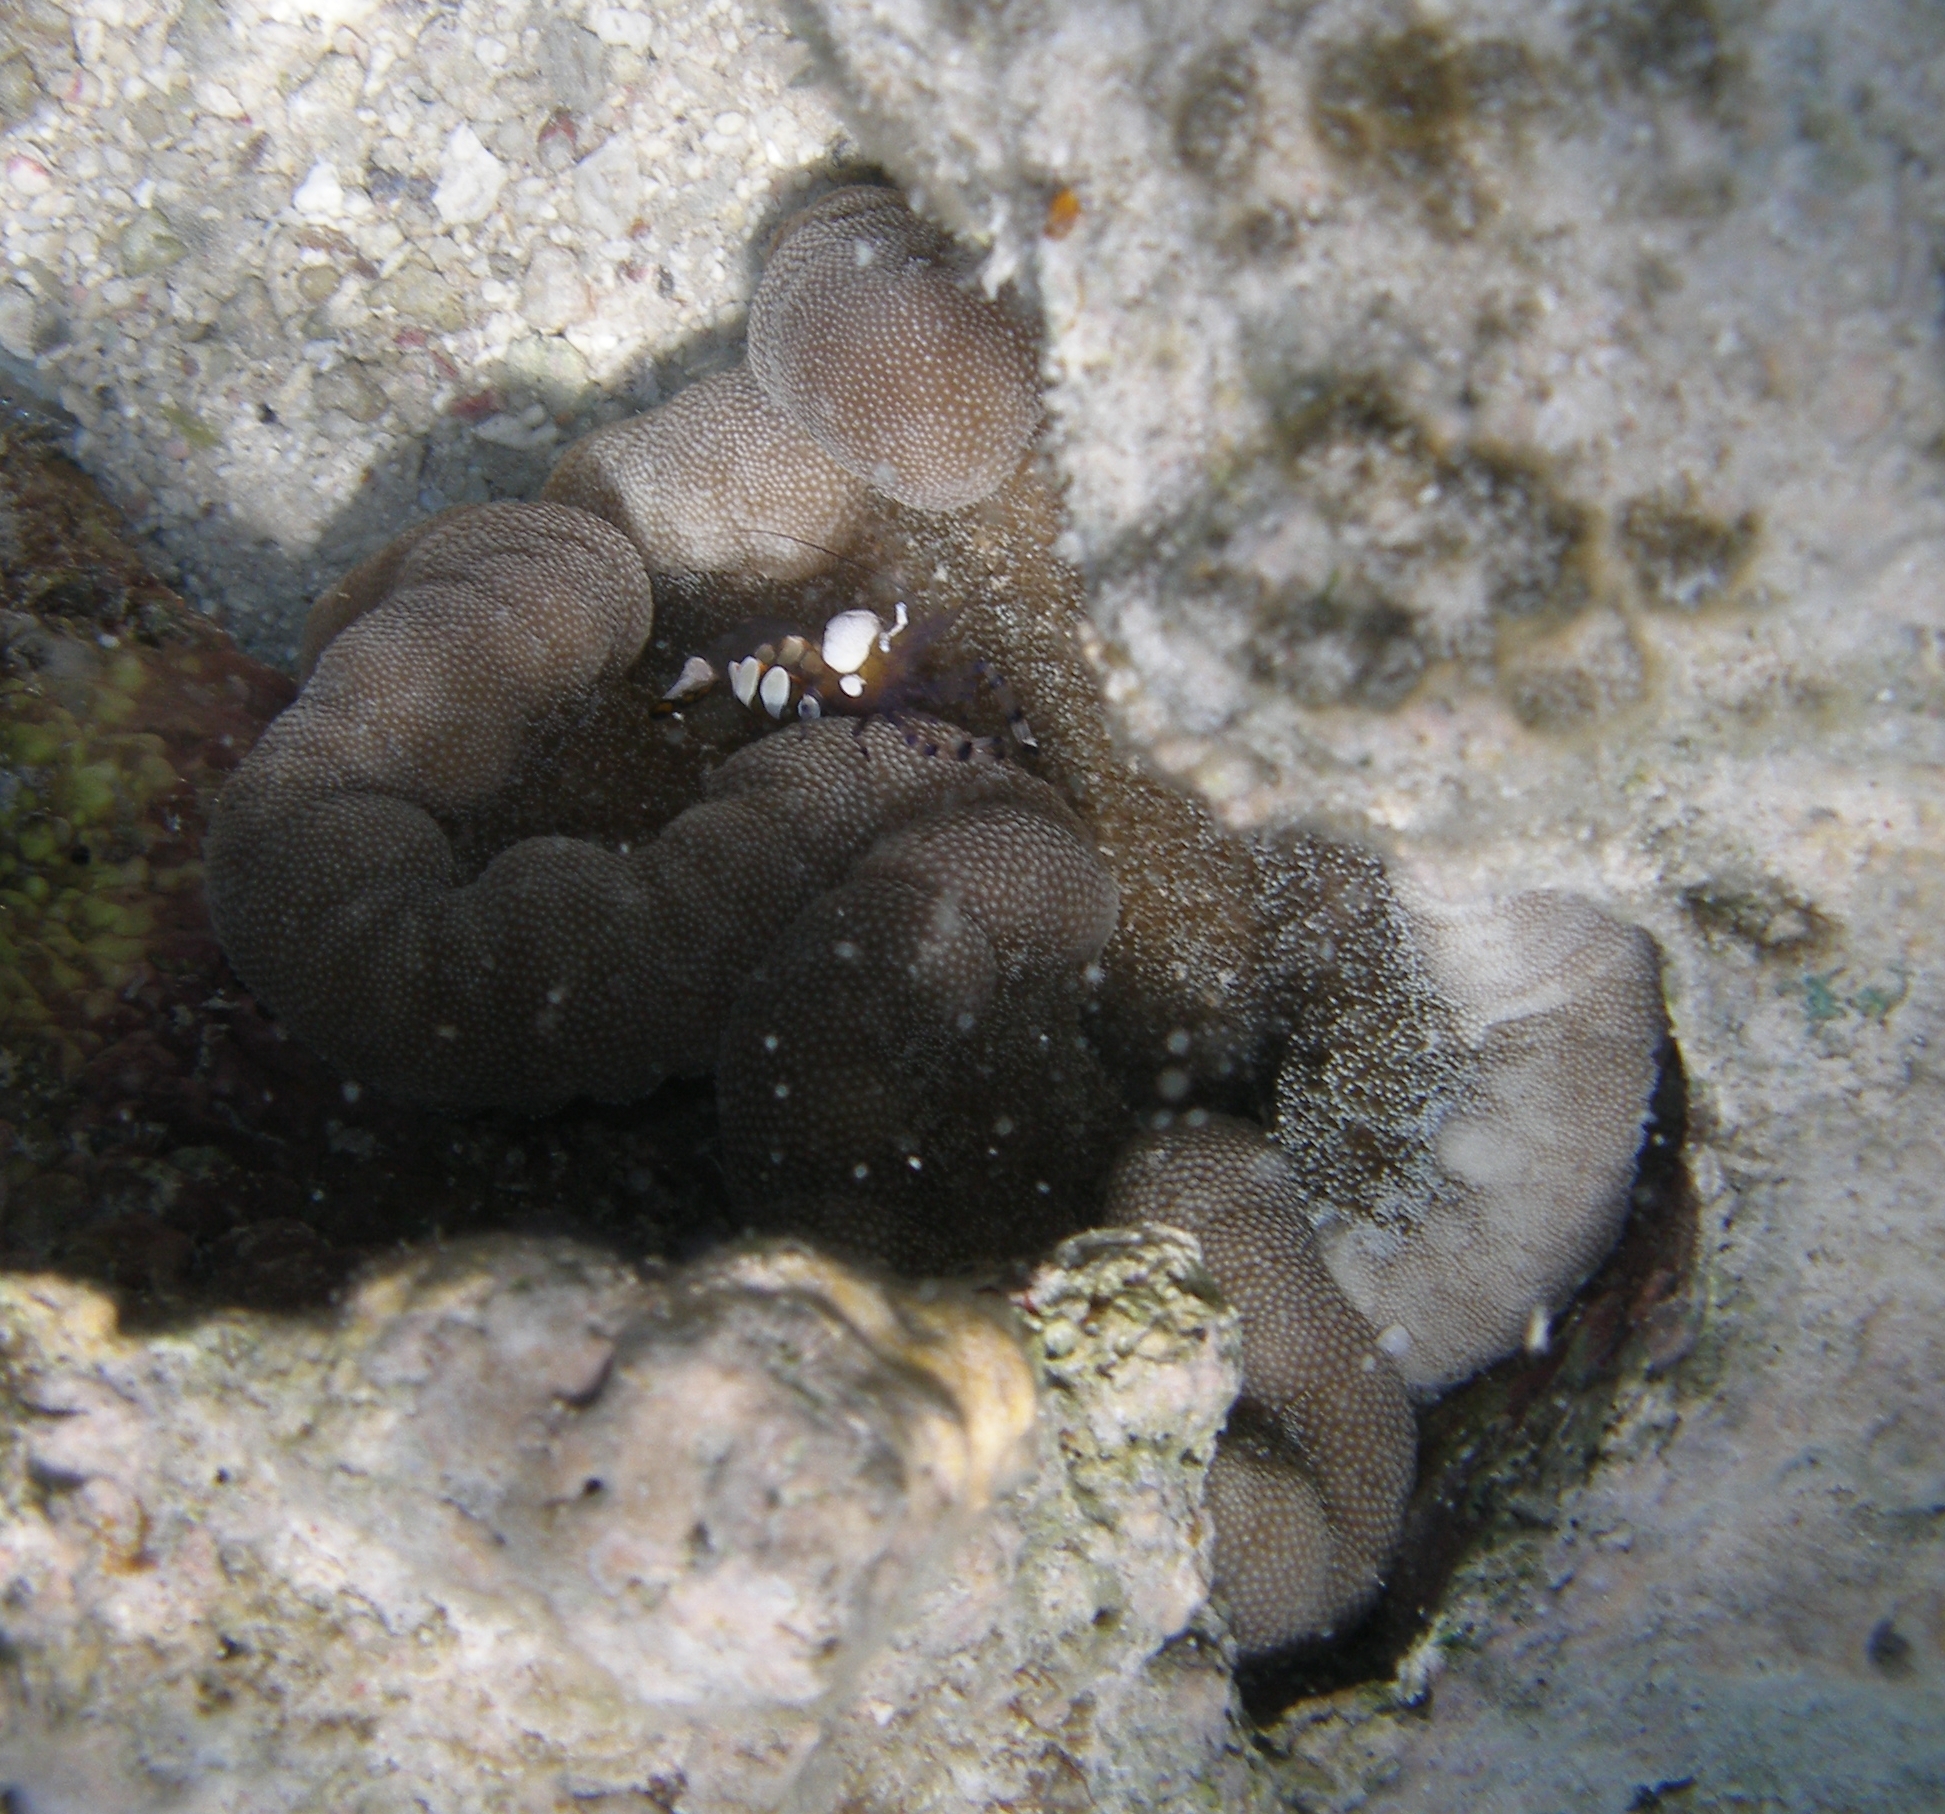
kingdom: Animalia
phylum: Arthropoda
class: Malacostraca
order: Decapoda
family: Palaemonidae
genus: Ancylocaris
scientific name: Ancylocaris brevicarpalis
